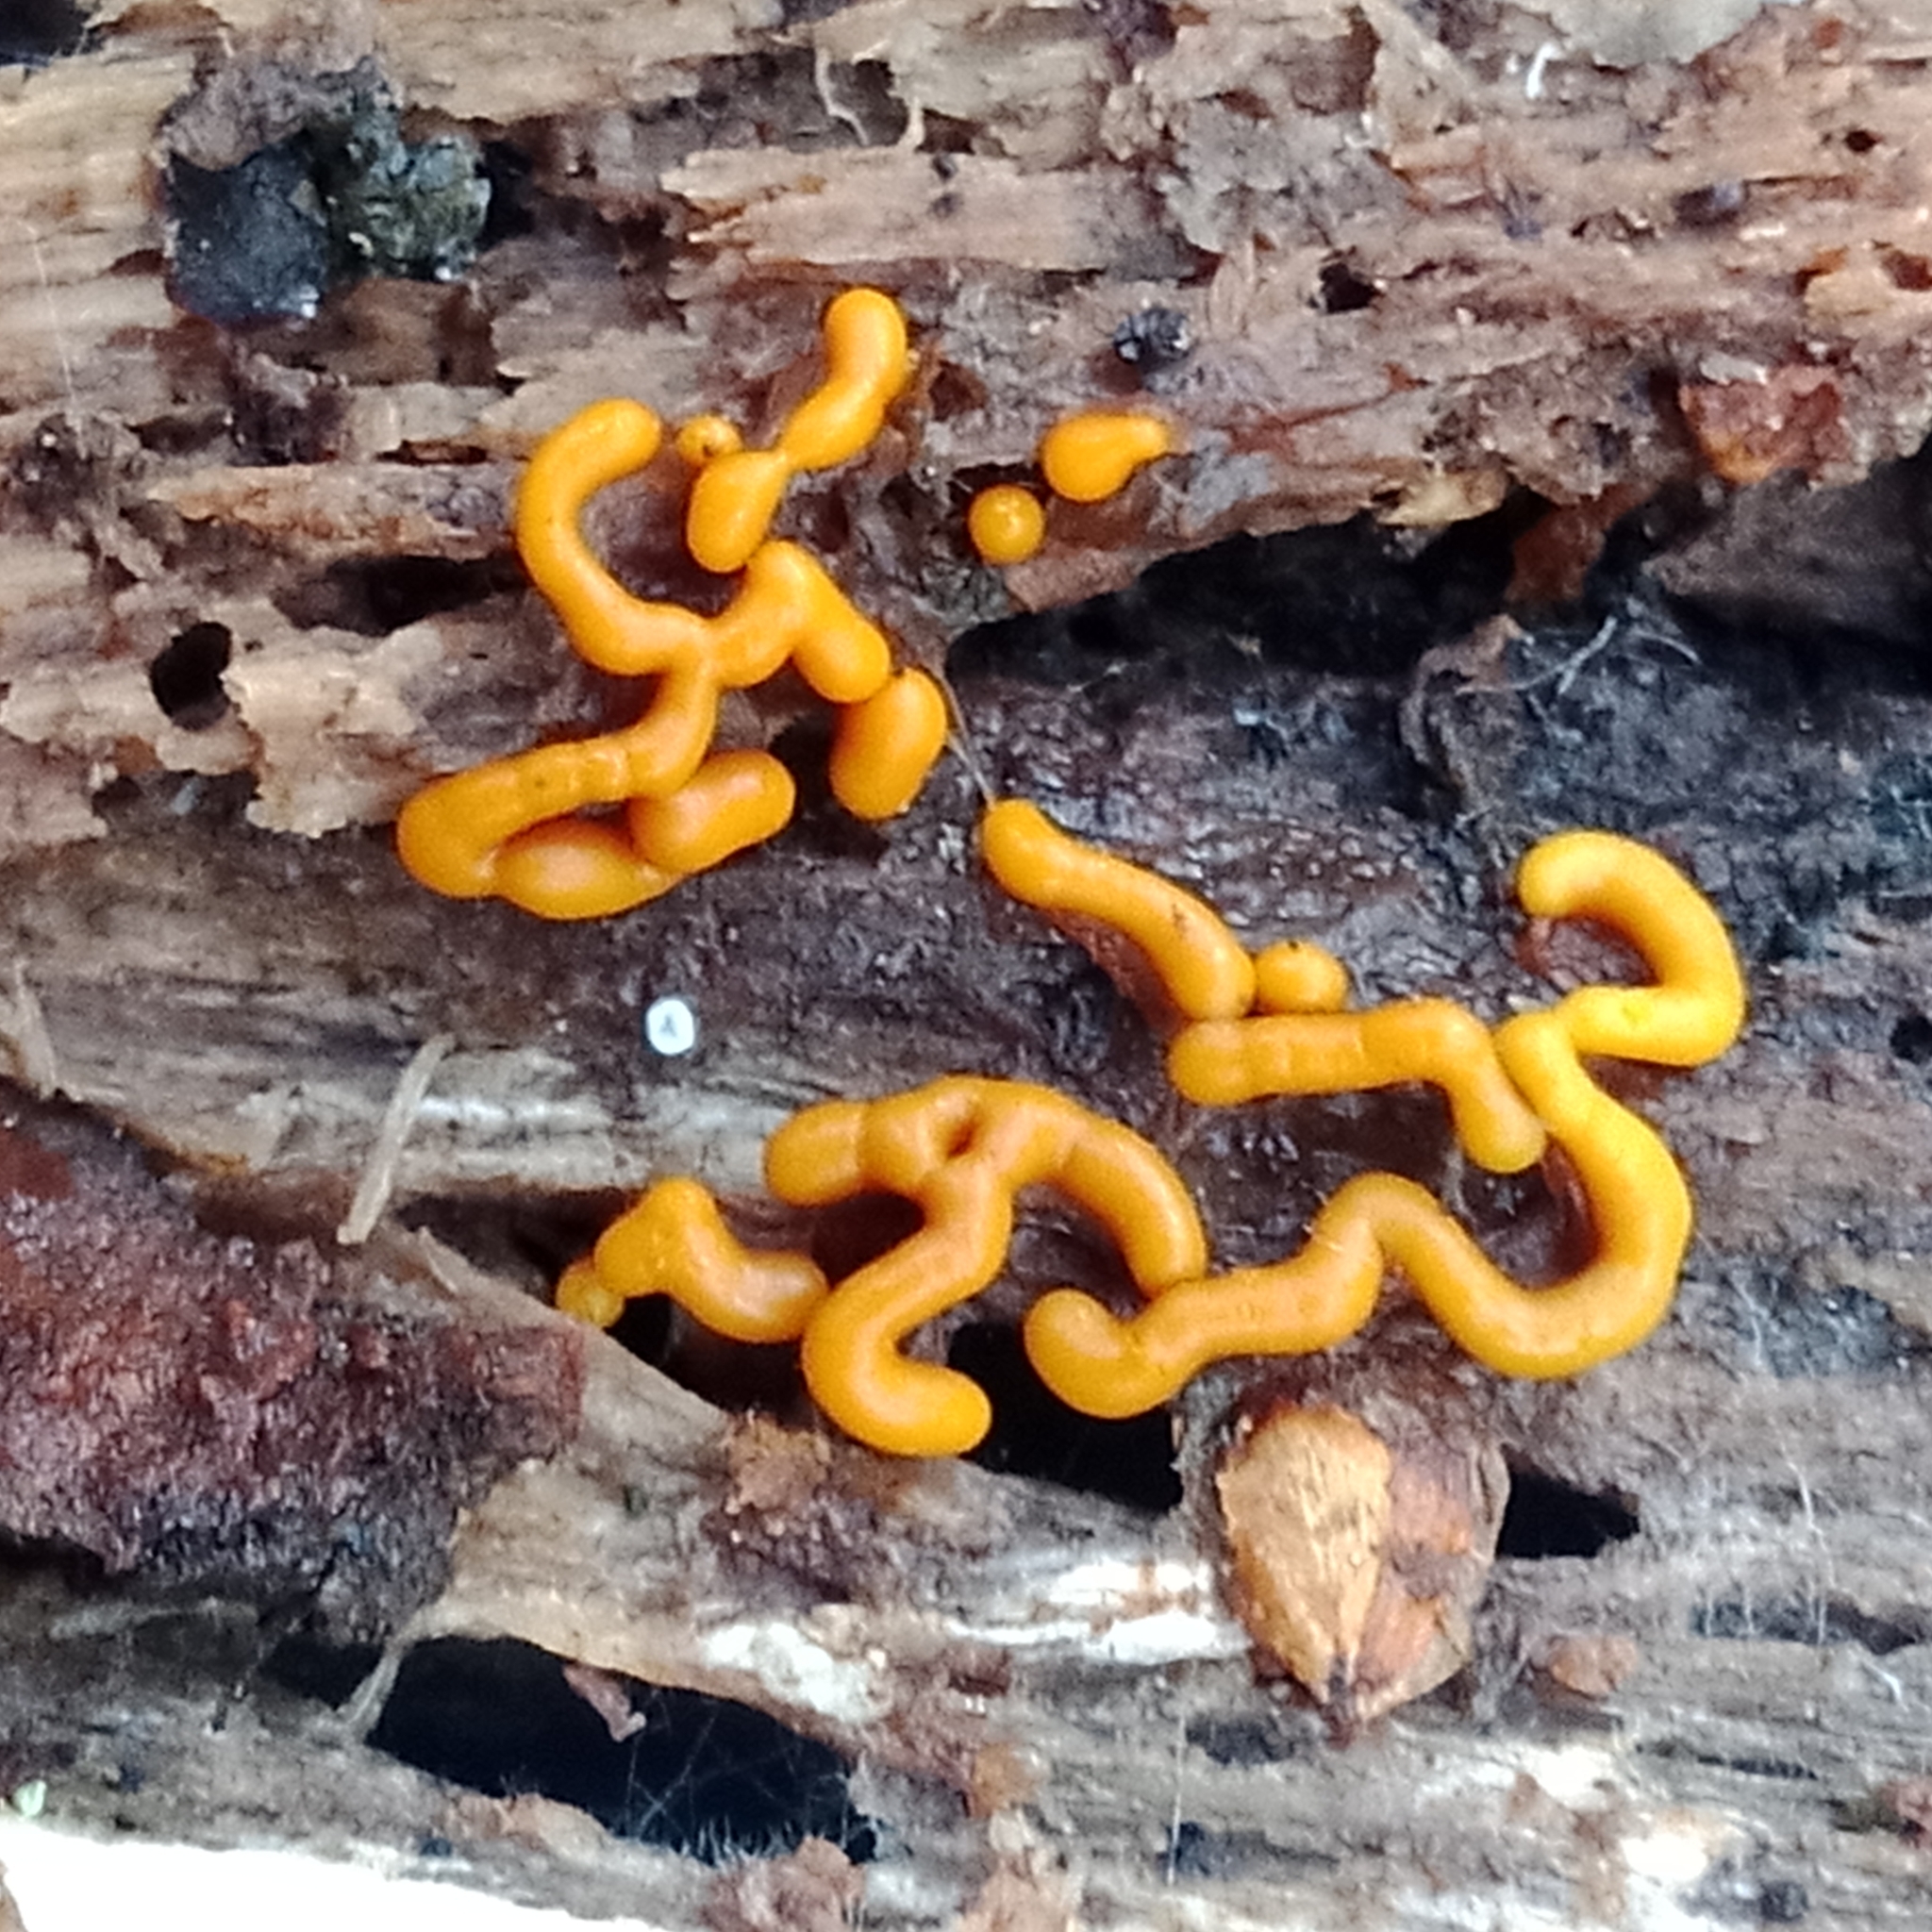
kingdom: Protozoa
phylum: Mycetozoa
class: Myxomycetes
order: Trichiales
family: Arcyriaceae
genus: Hemitrichia
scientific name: Hemitrichia serpula
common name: Pretzel slime mold
